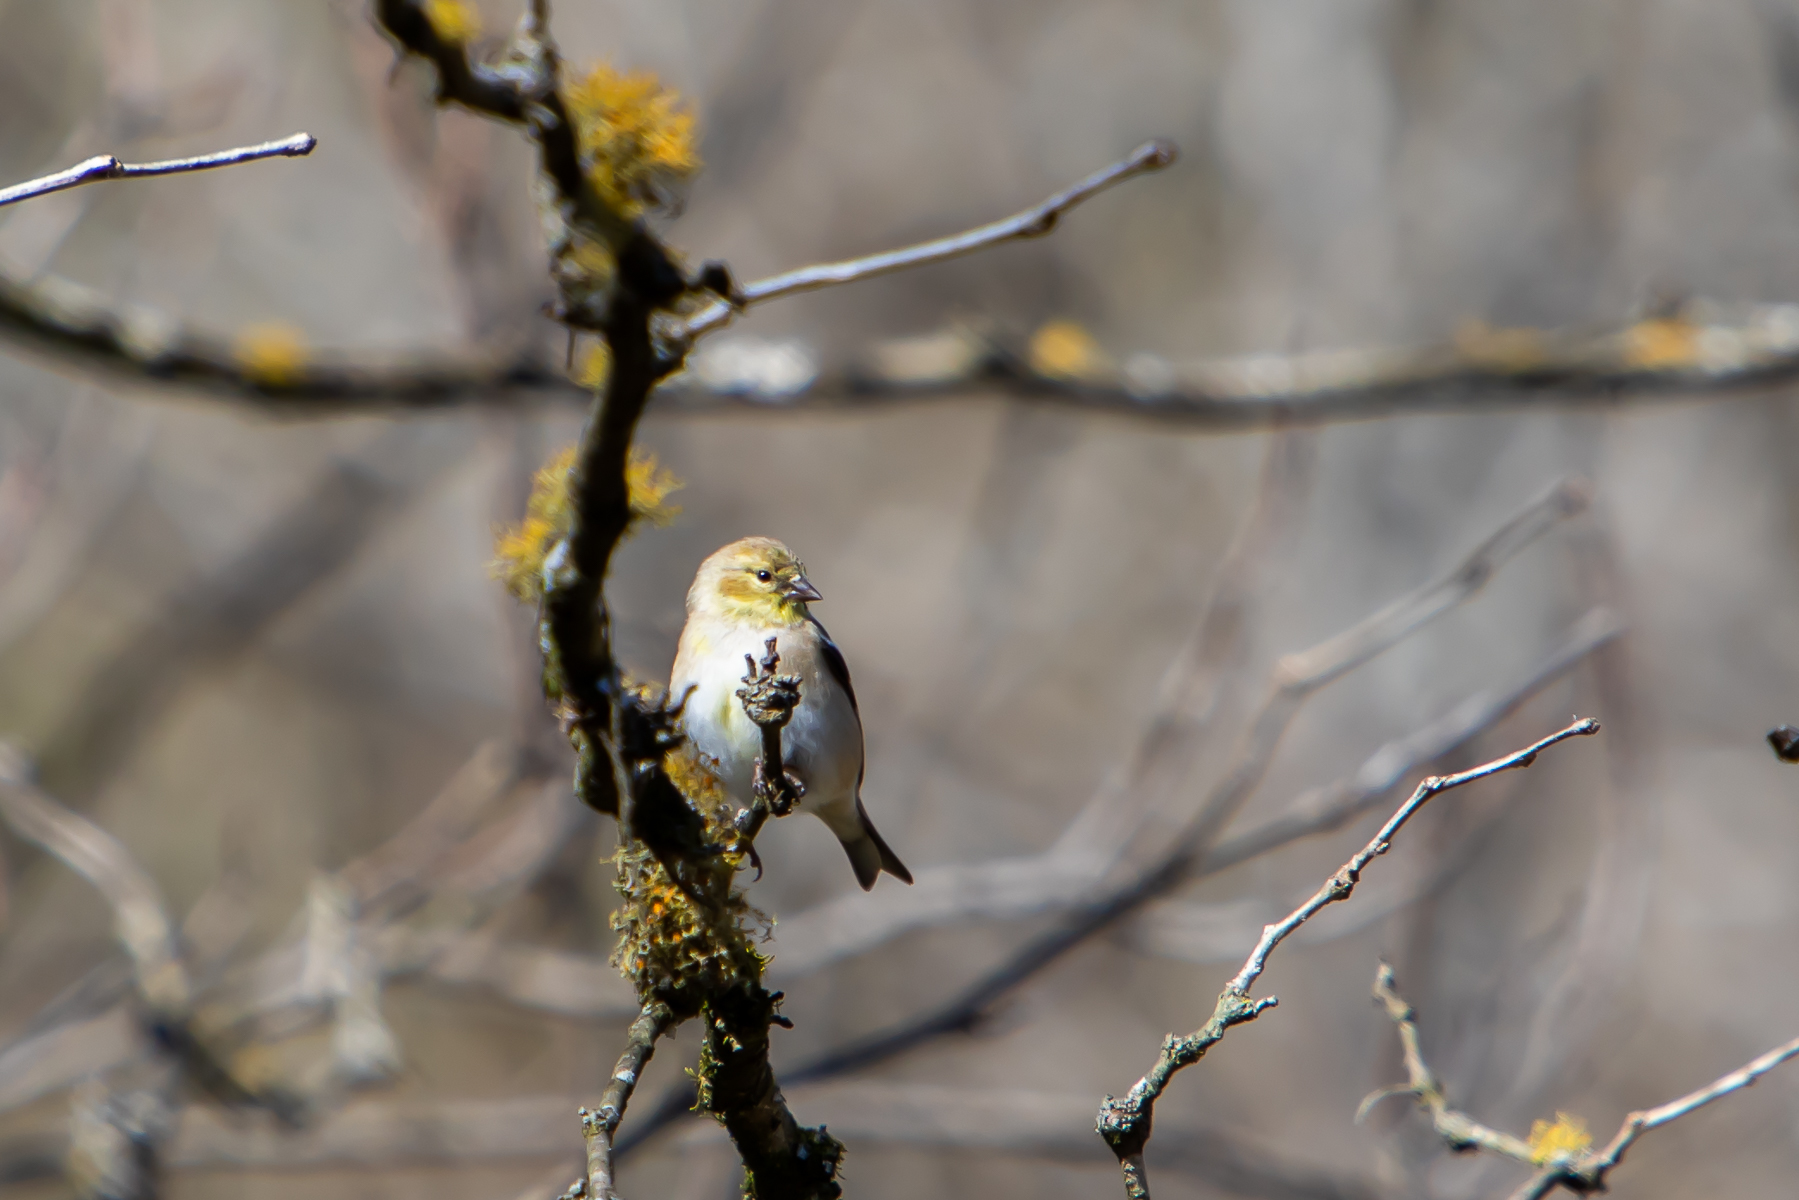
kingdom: Animalia
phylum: Chordata
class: Aves
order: Passeriformes
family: Fringillidae
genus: Spinus
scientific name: Spinus tristis
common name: American goldfinch
